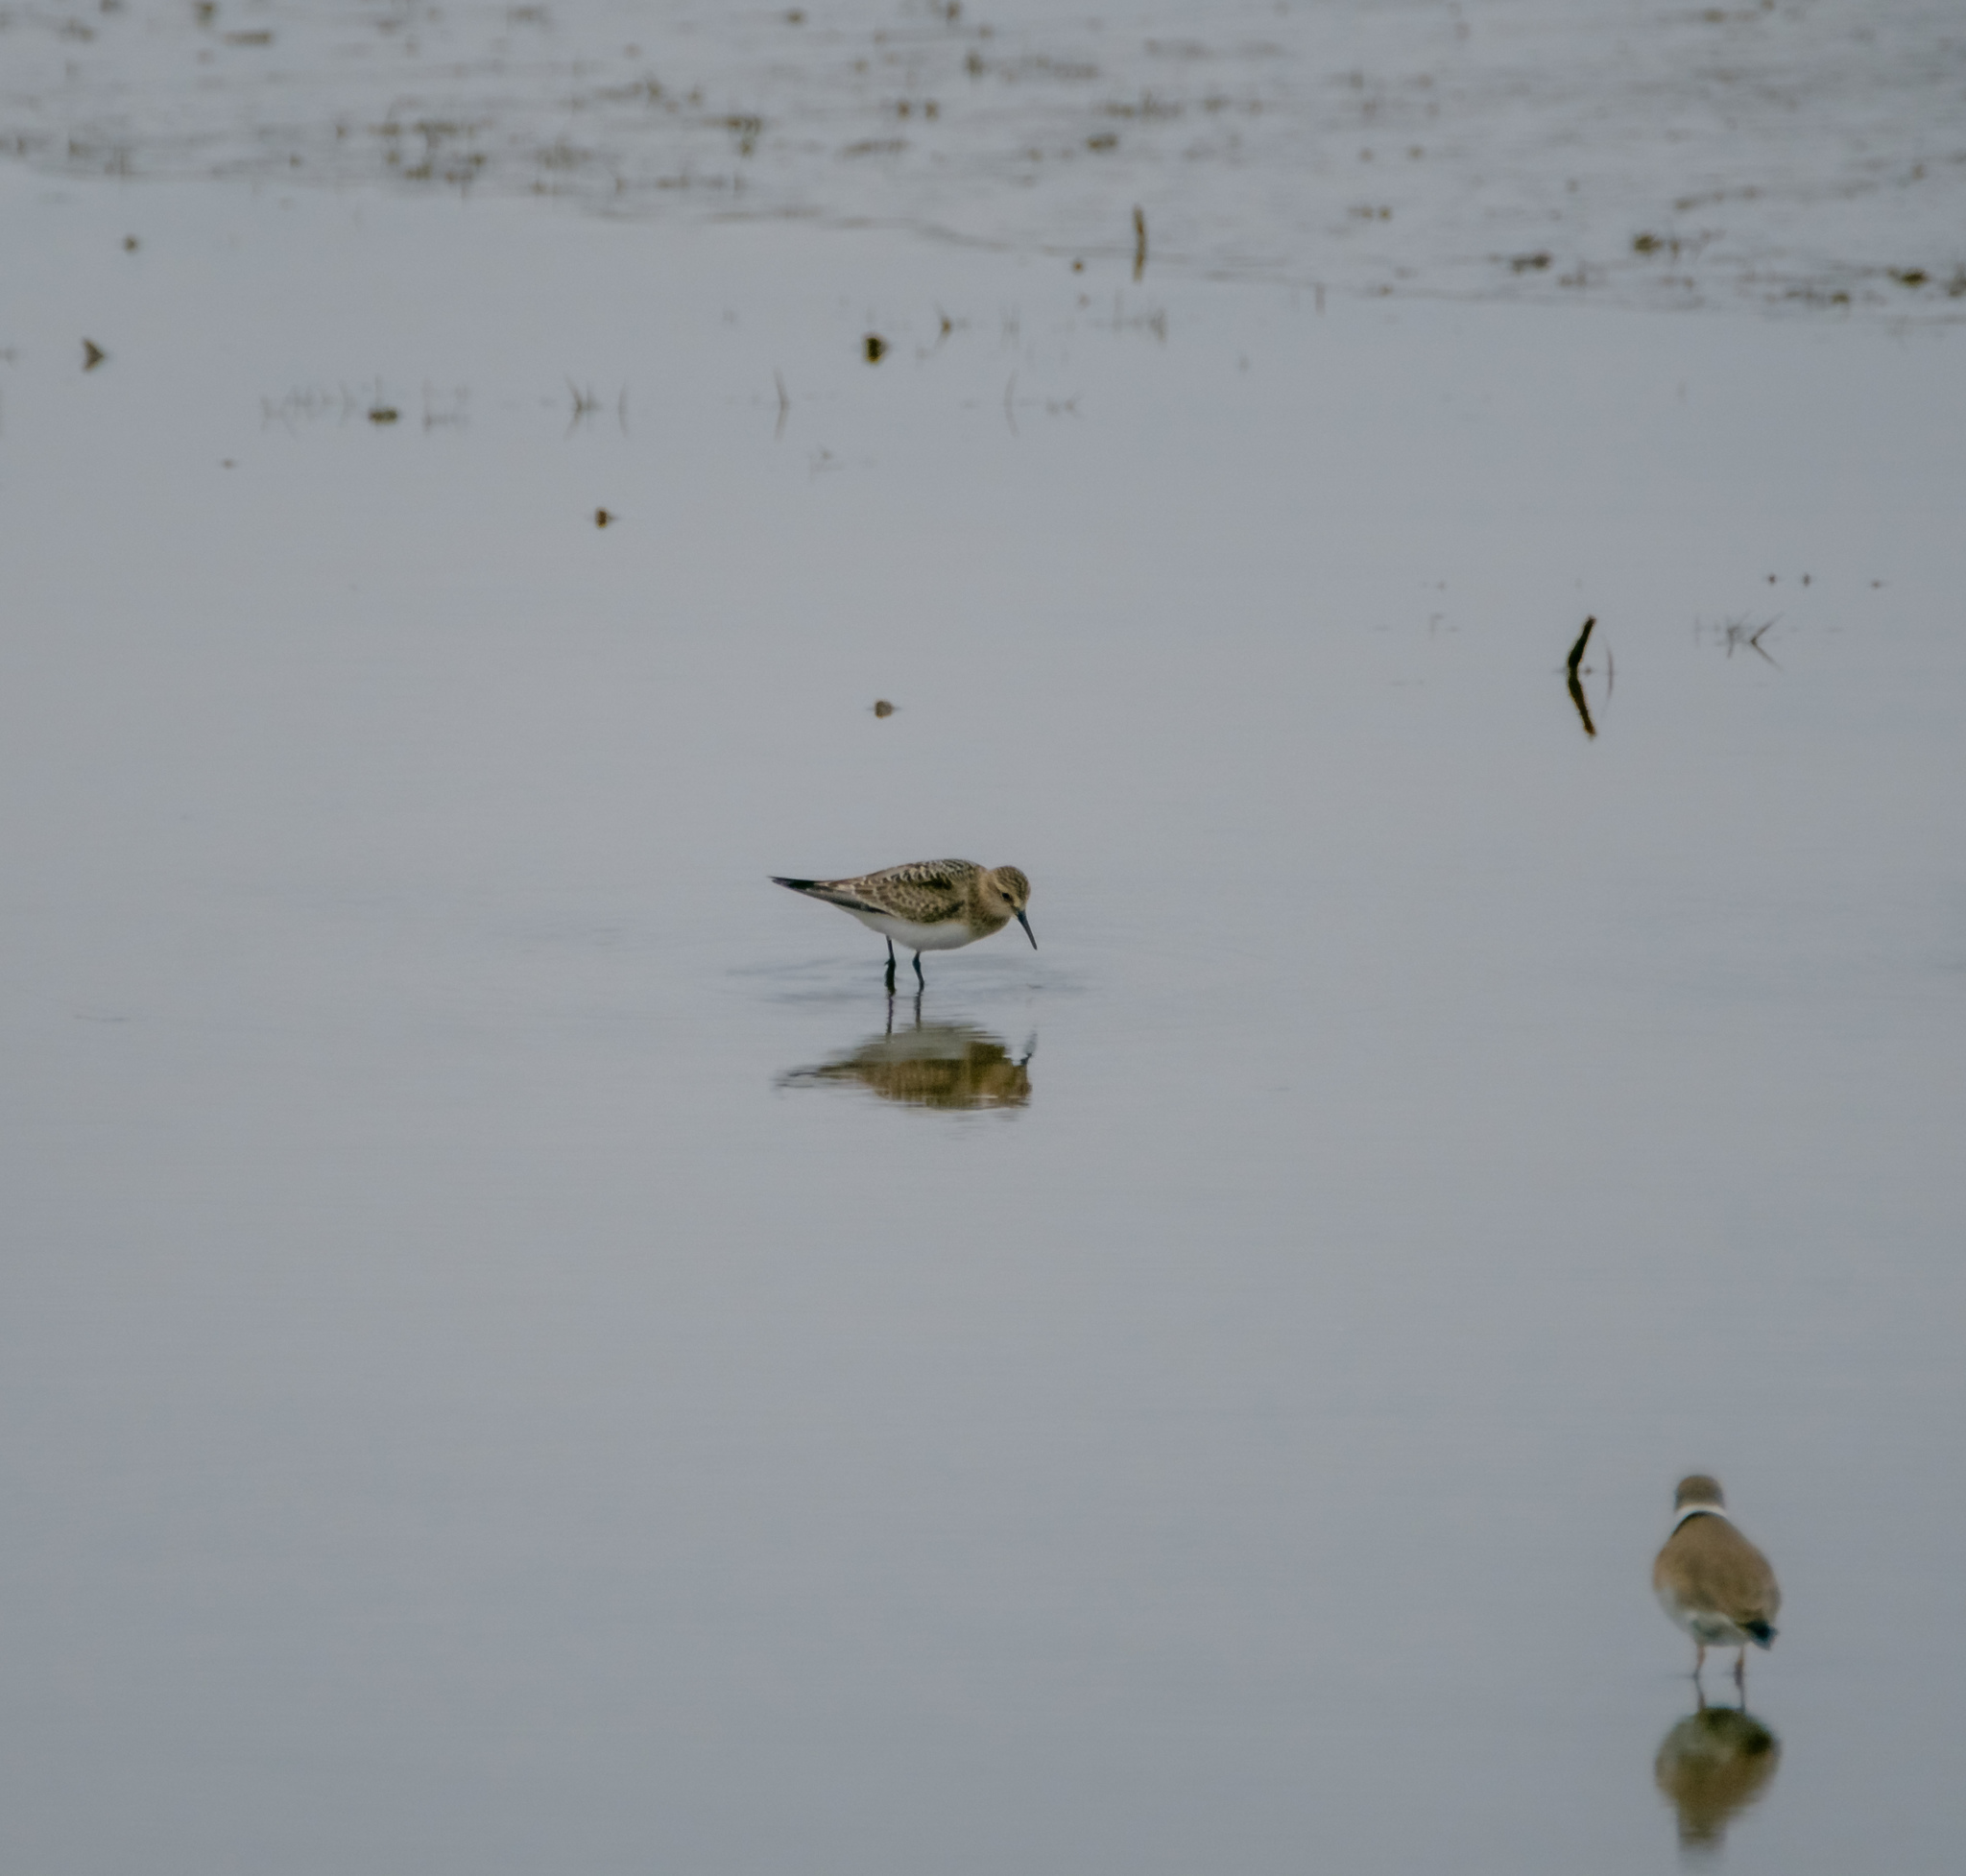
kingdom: Animalia
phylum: Chordata
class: Aves
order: Charadriiformes
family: Scolopacidae
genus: Calidris
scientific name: Calidris bairdii
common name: Baird's sandpiper
